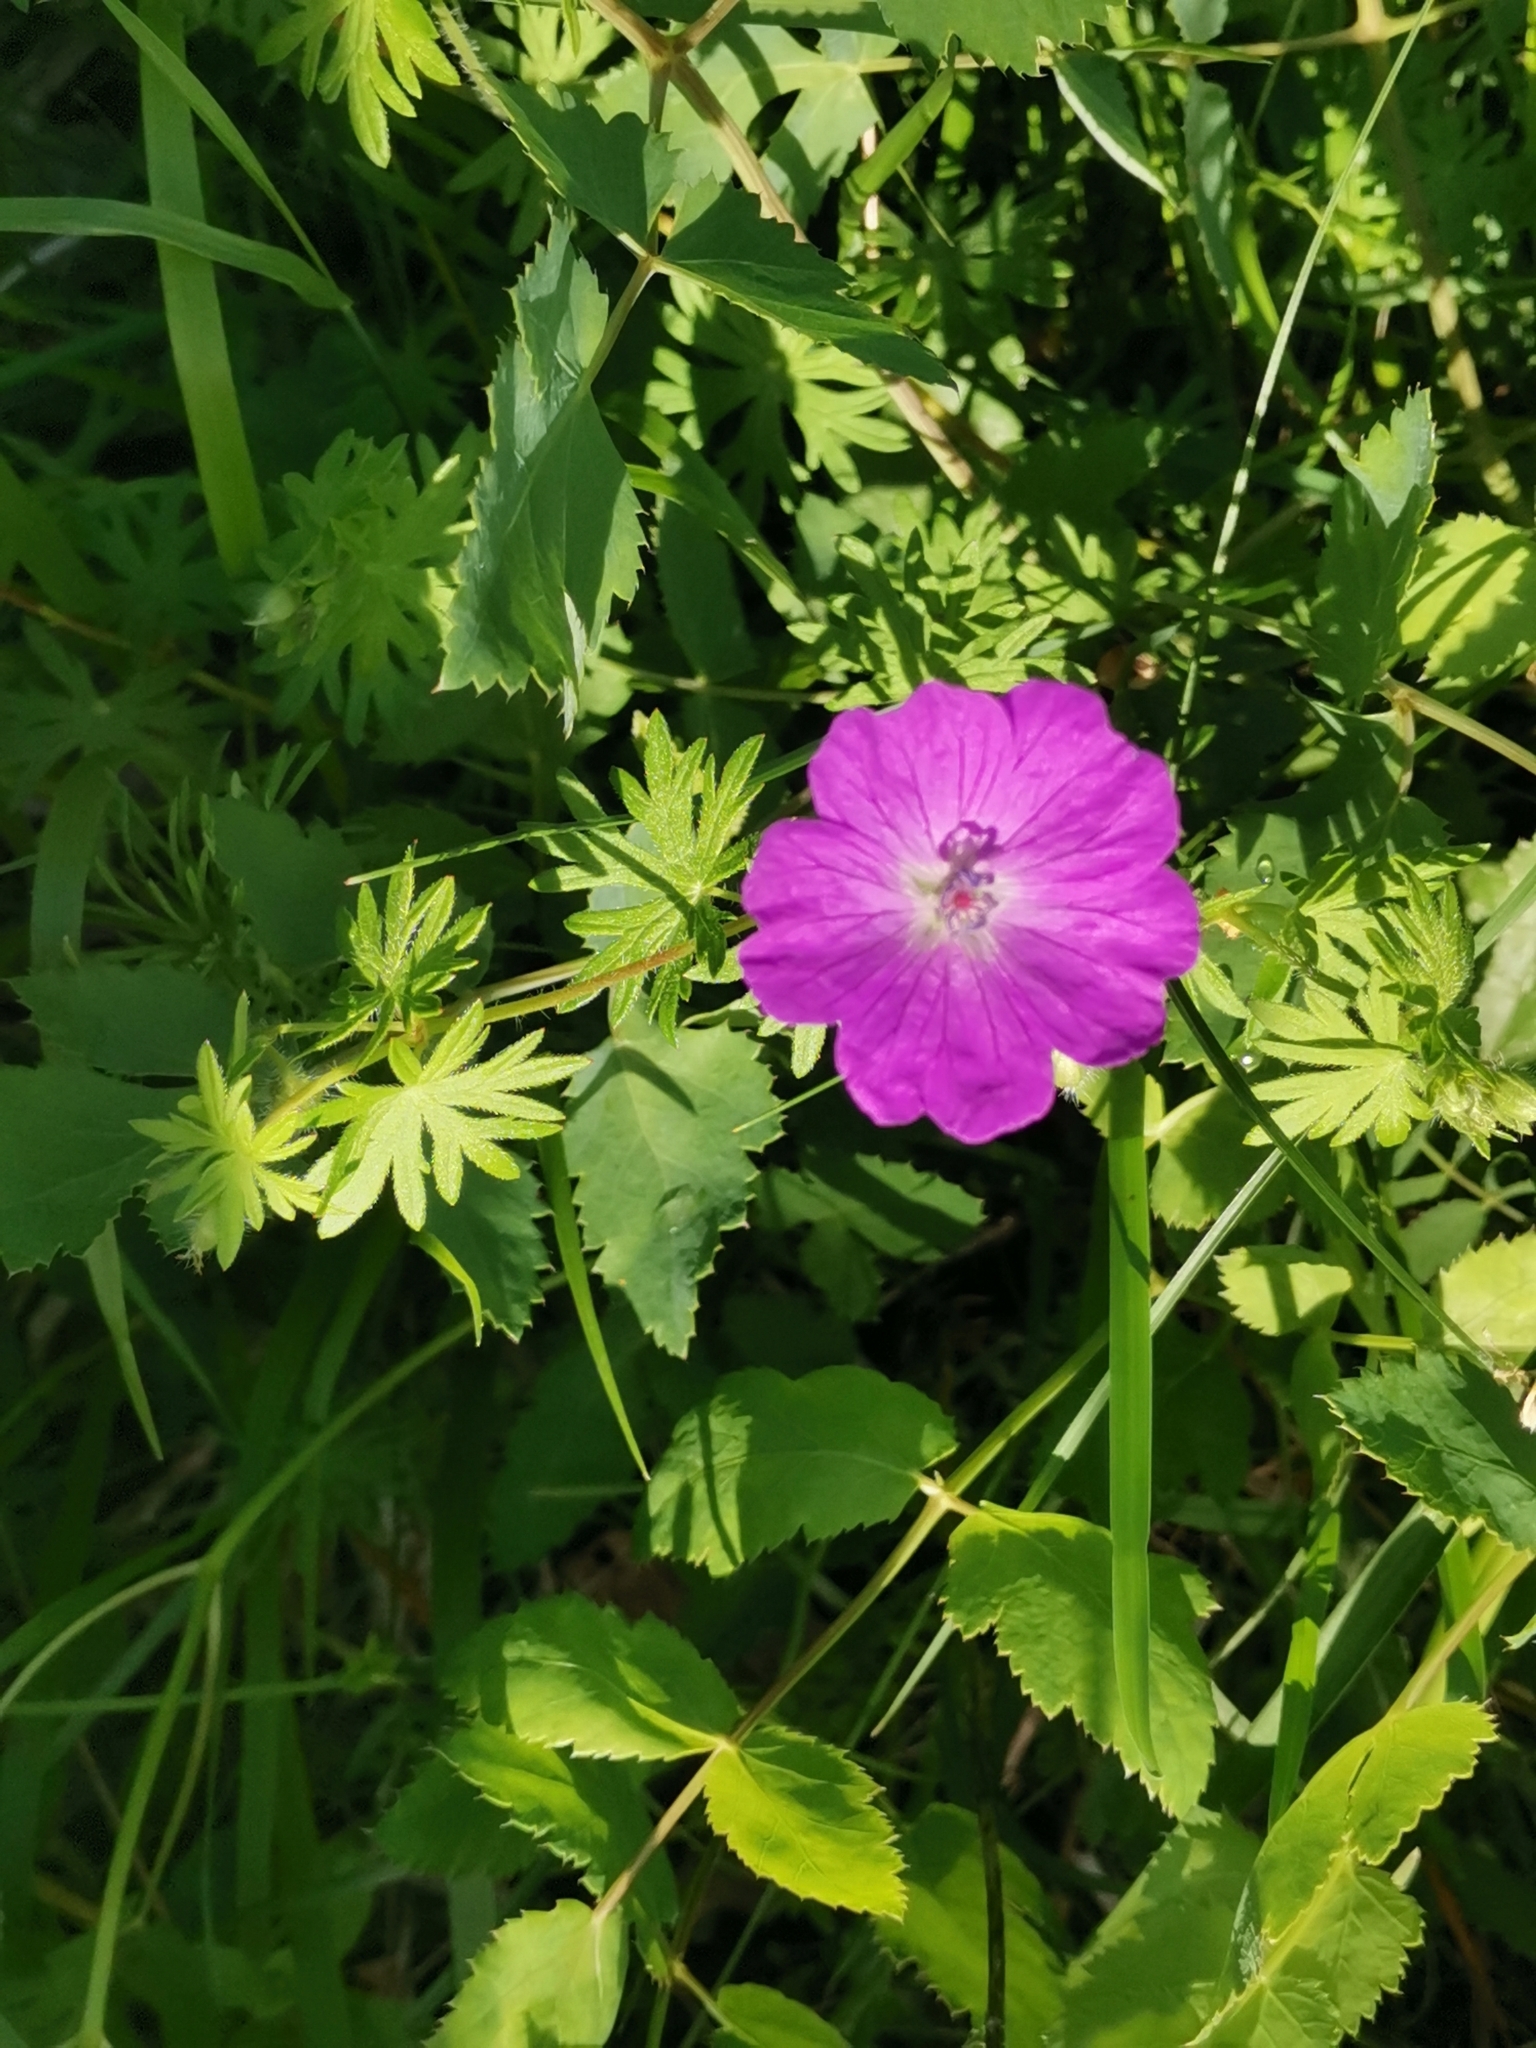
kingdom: Plantae
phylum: Tracheophyta
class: Magnoliopsida
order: Geraniales
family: Geraniaceae
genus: Geranium
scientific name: Geranium sanguineum
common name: Bloody crane's-bill
